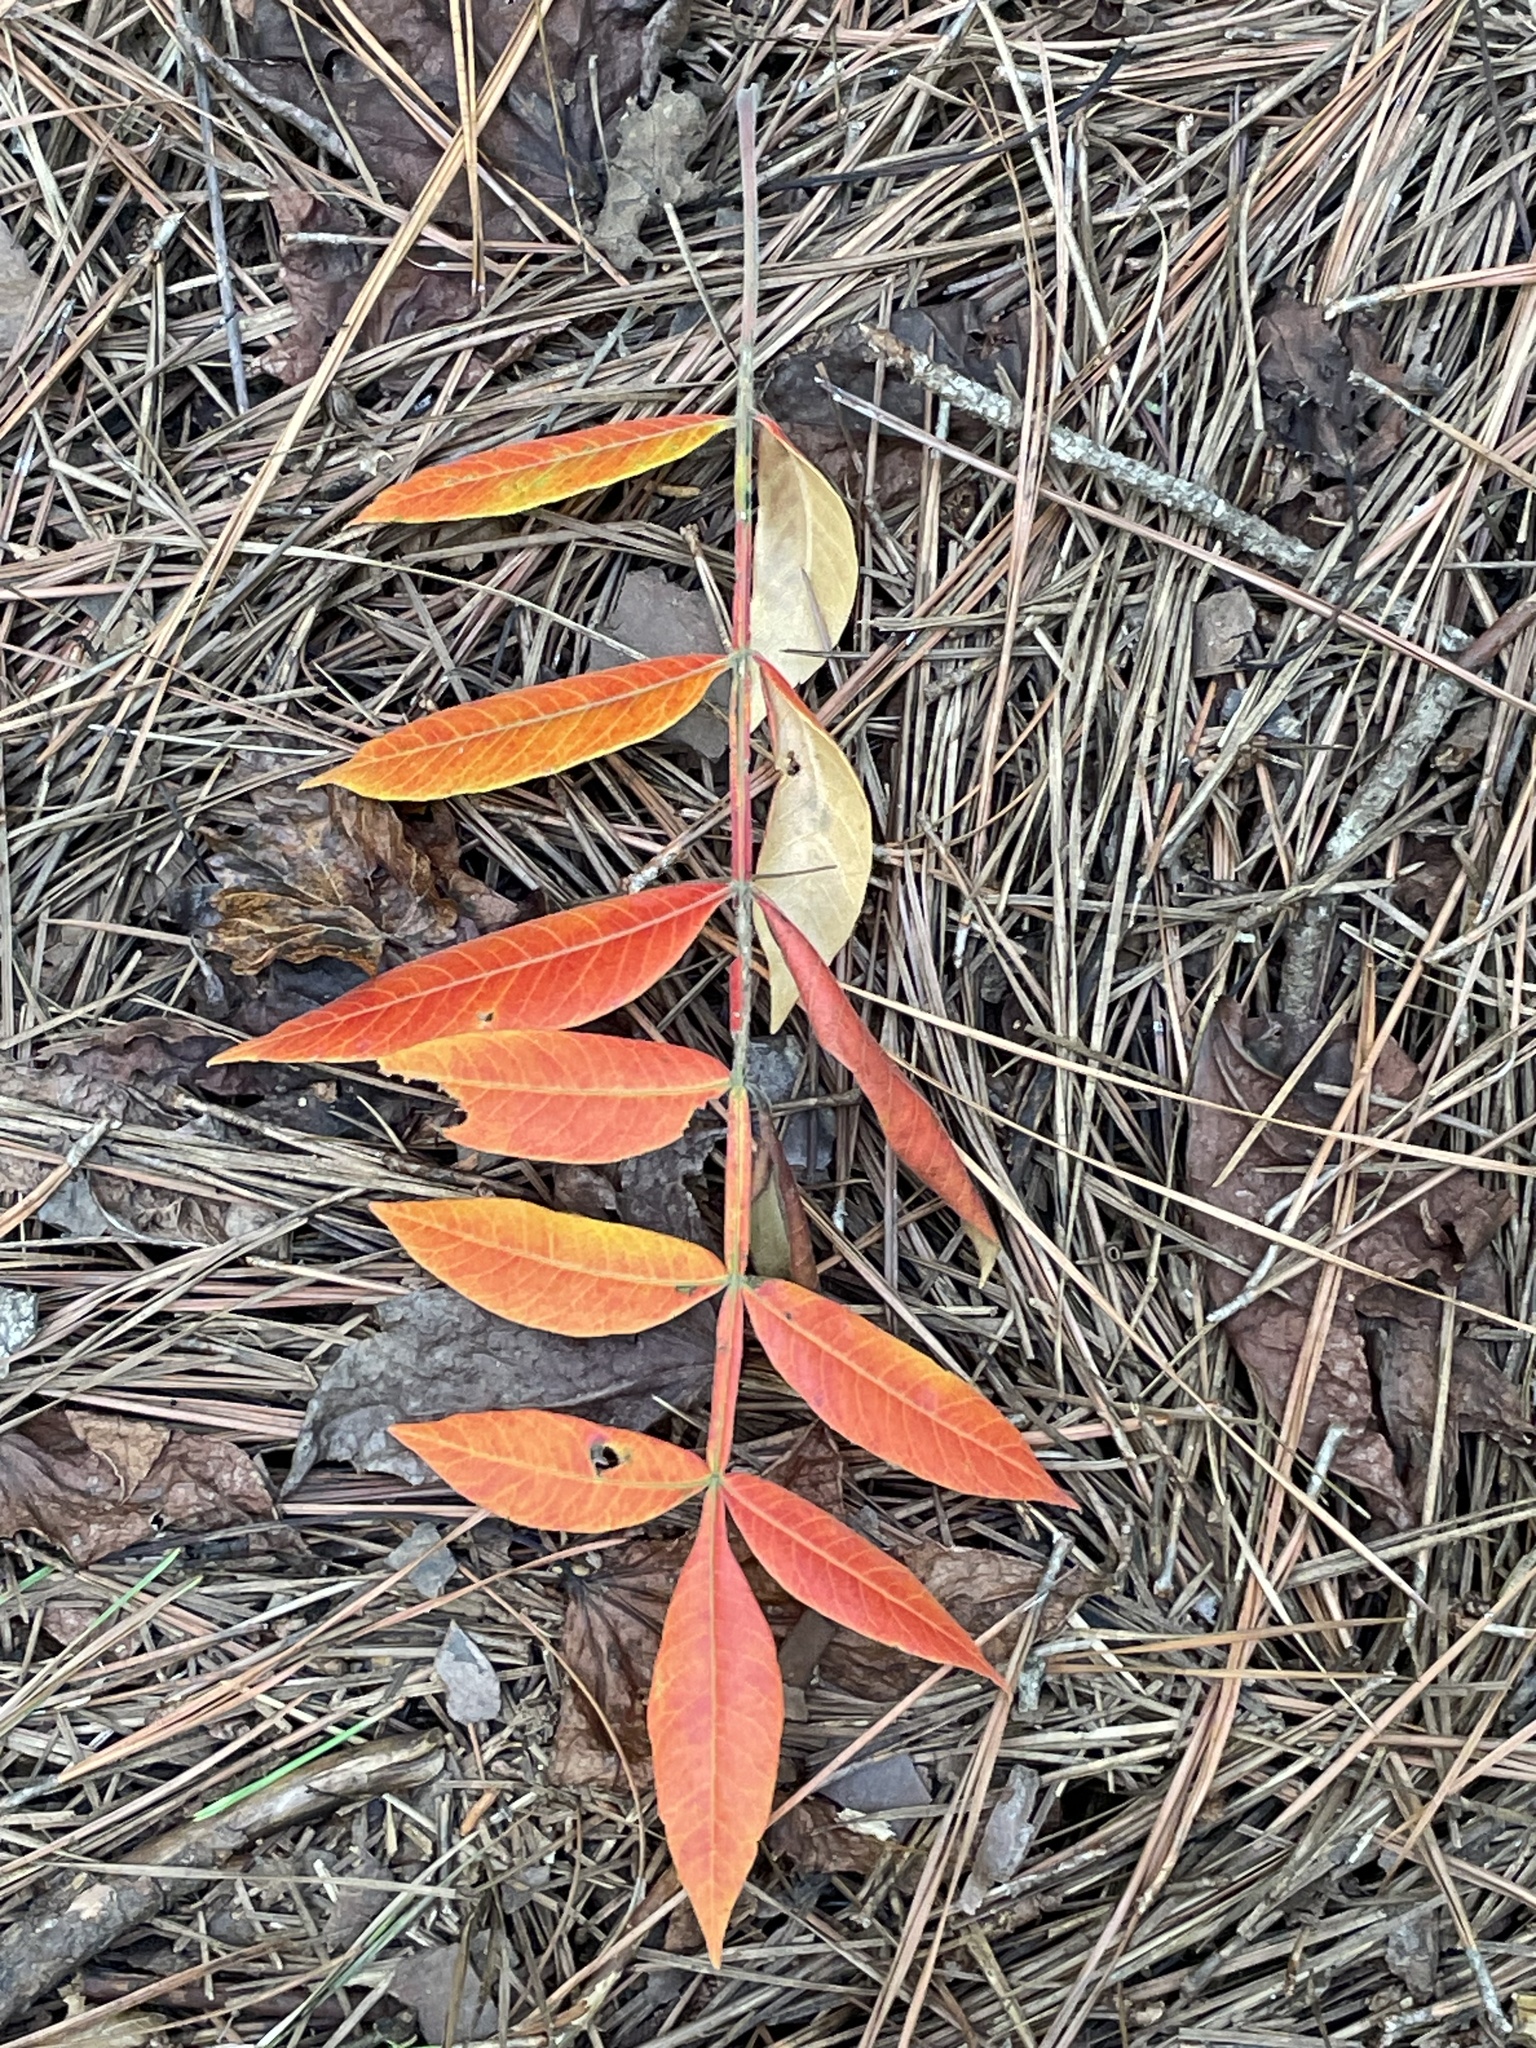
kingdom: Plantae
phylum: Tracheophyta
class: Magnoliopsida
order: Sapindales
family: Anacardiaceae
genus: Rhus
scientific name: Rhus copallina
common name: Shining sumac
